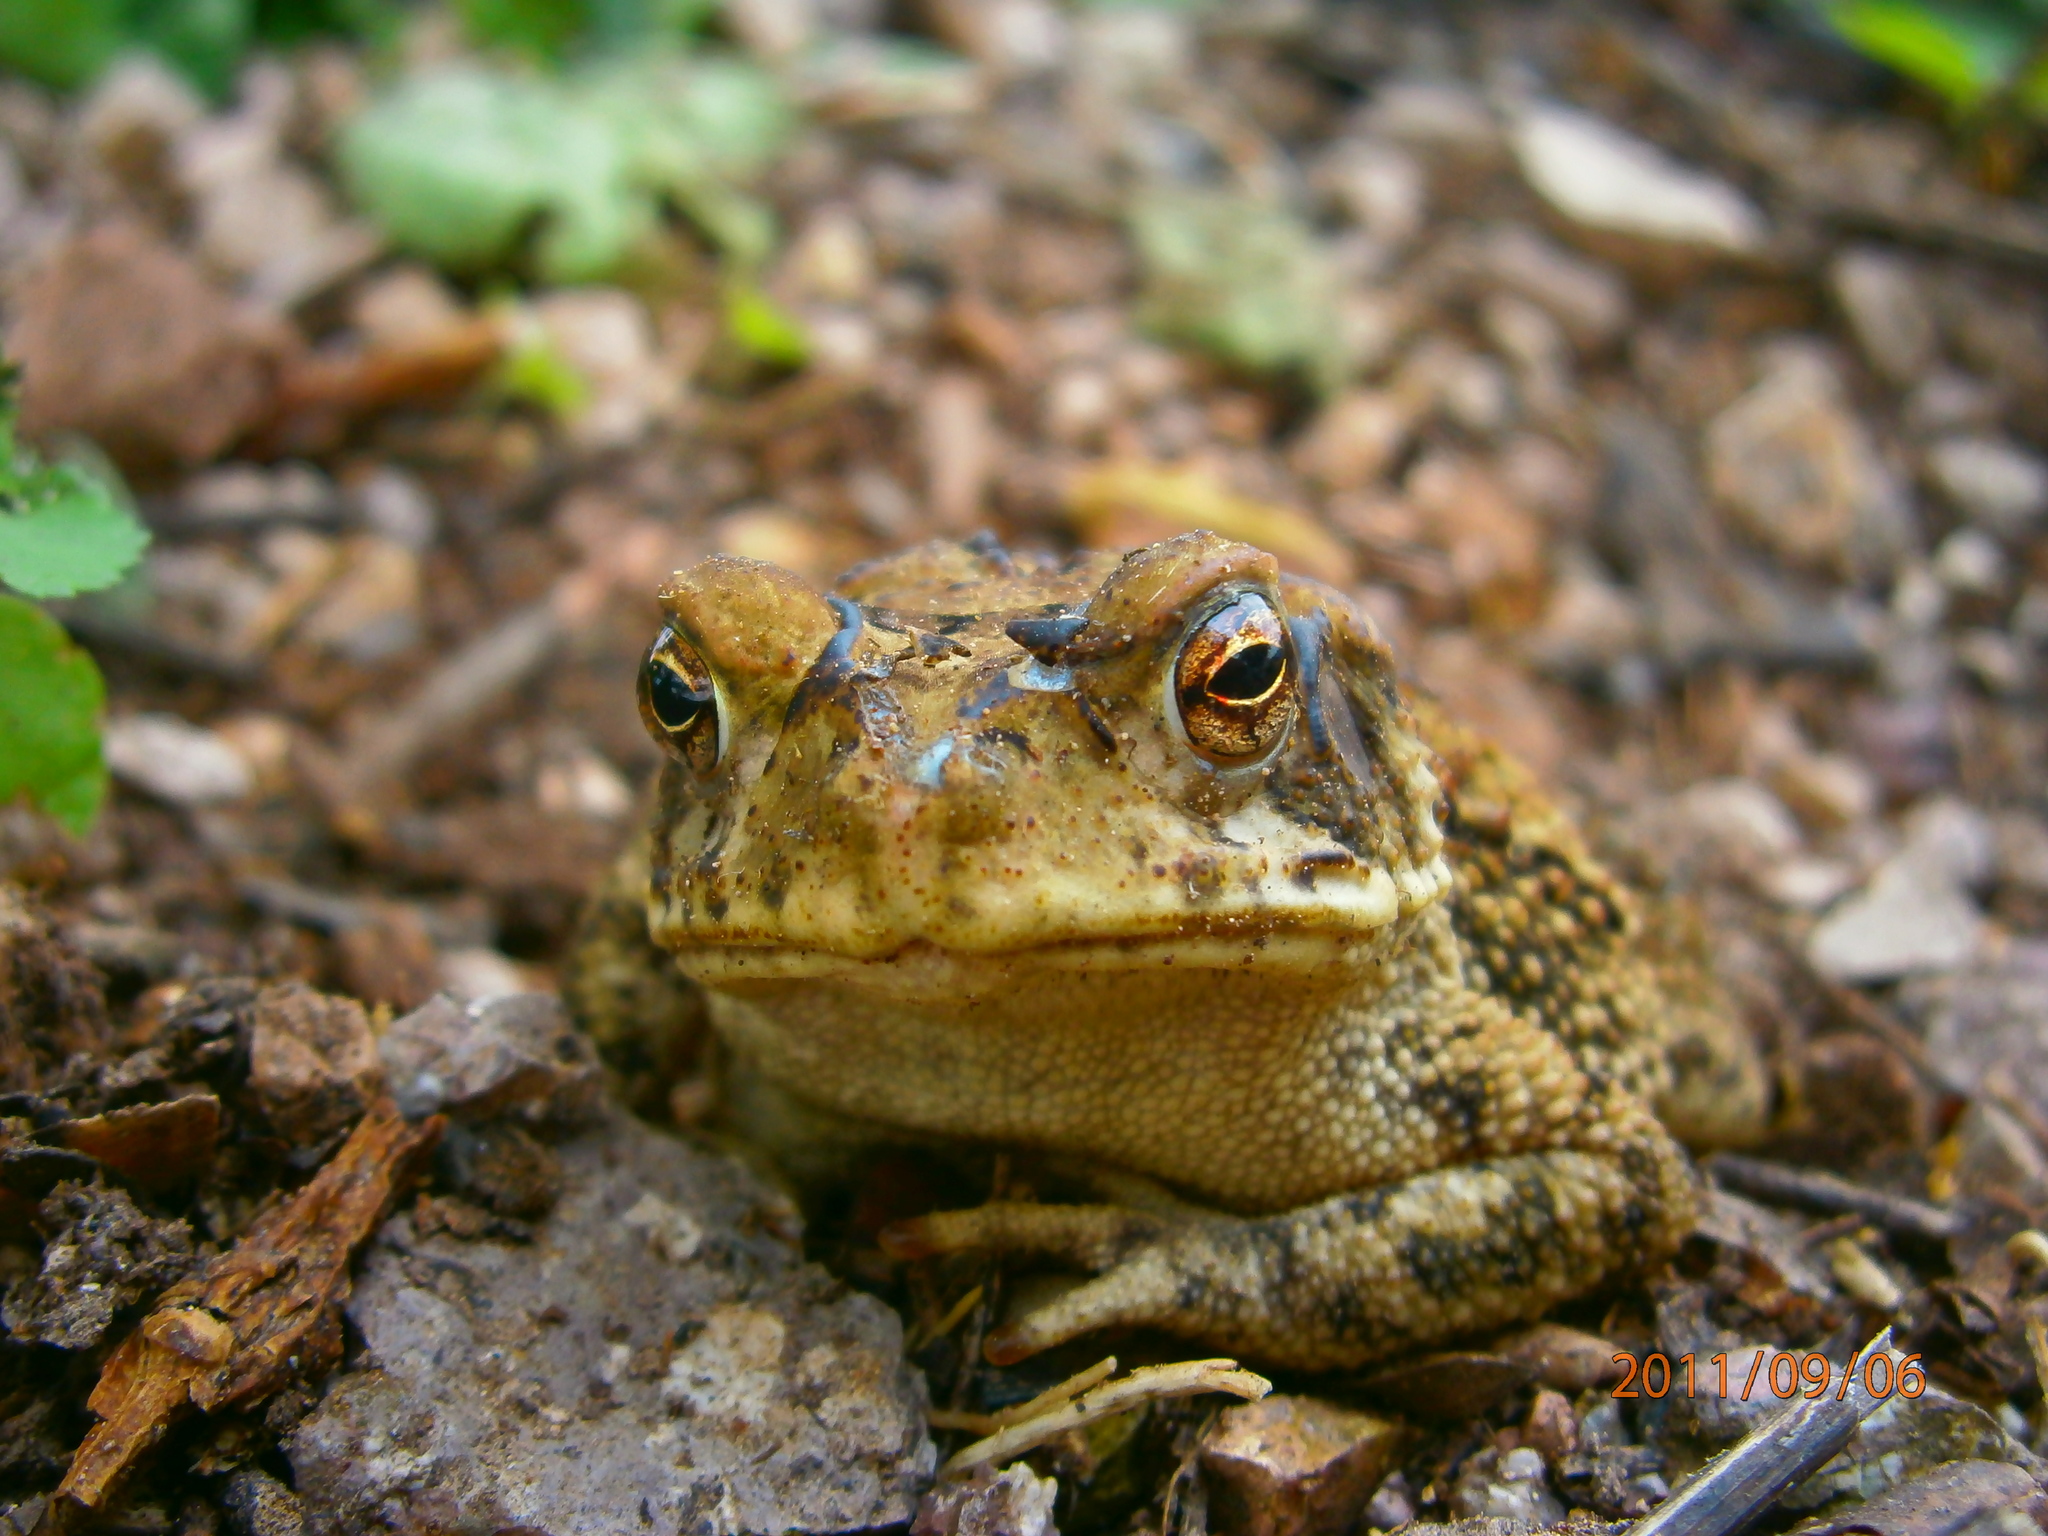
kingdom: Animalia
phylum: Chordata
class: Amphibia
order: Anura
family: Bufonidae
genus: Incilius
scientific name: Incilius mazatlanensis
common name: Sinaloa toad
